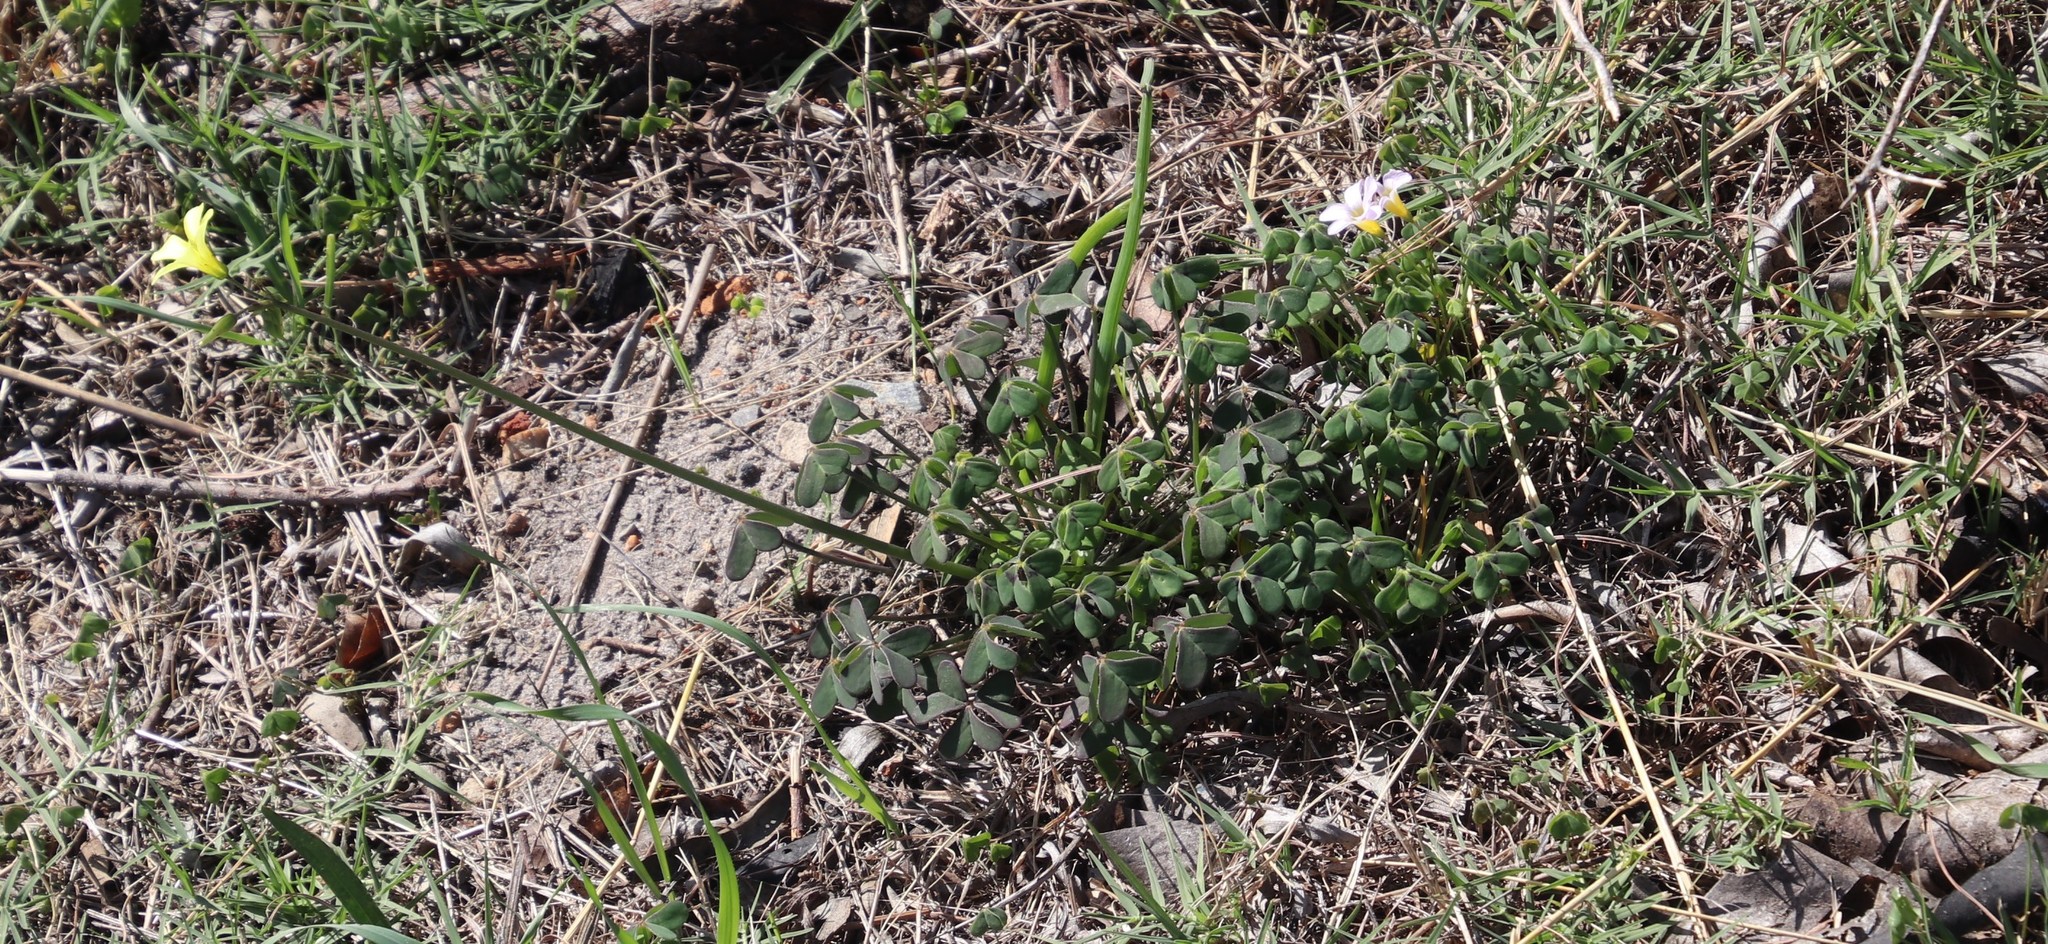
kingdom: Plantae
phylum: Tracheophyta
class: Magnoliopsida
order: Oxalidales
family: Oxalidaceae
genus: Oxalis
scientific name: Oxalis pes-caprae
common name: Bermuda-buttercup
